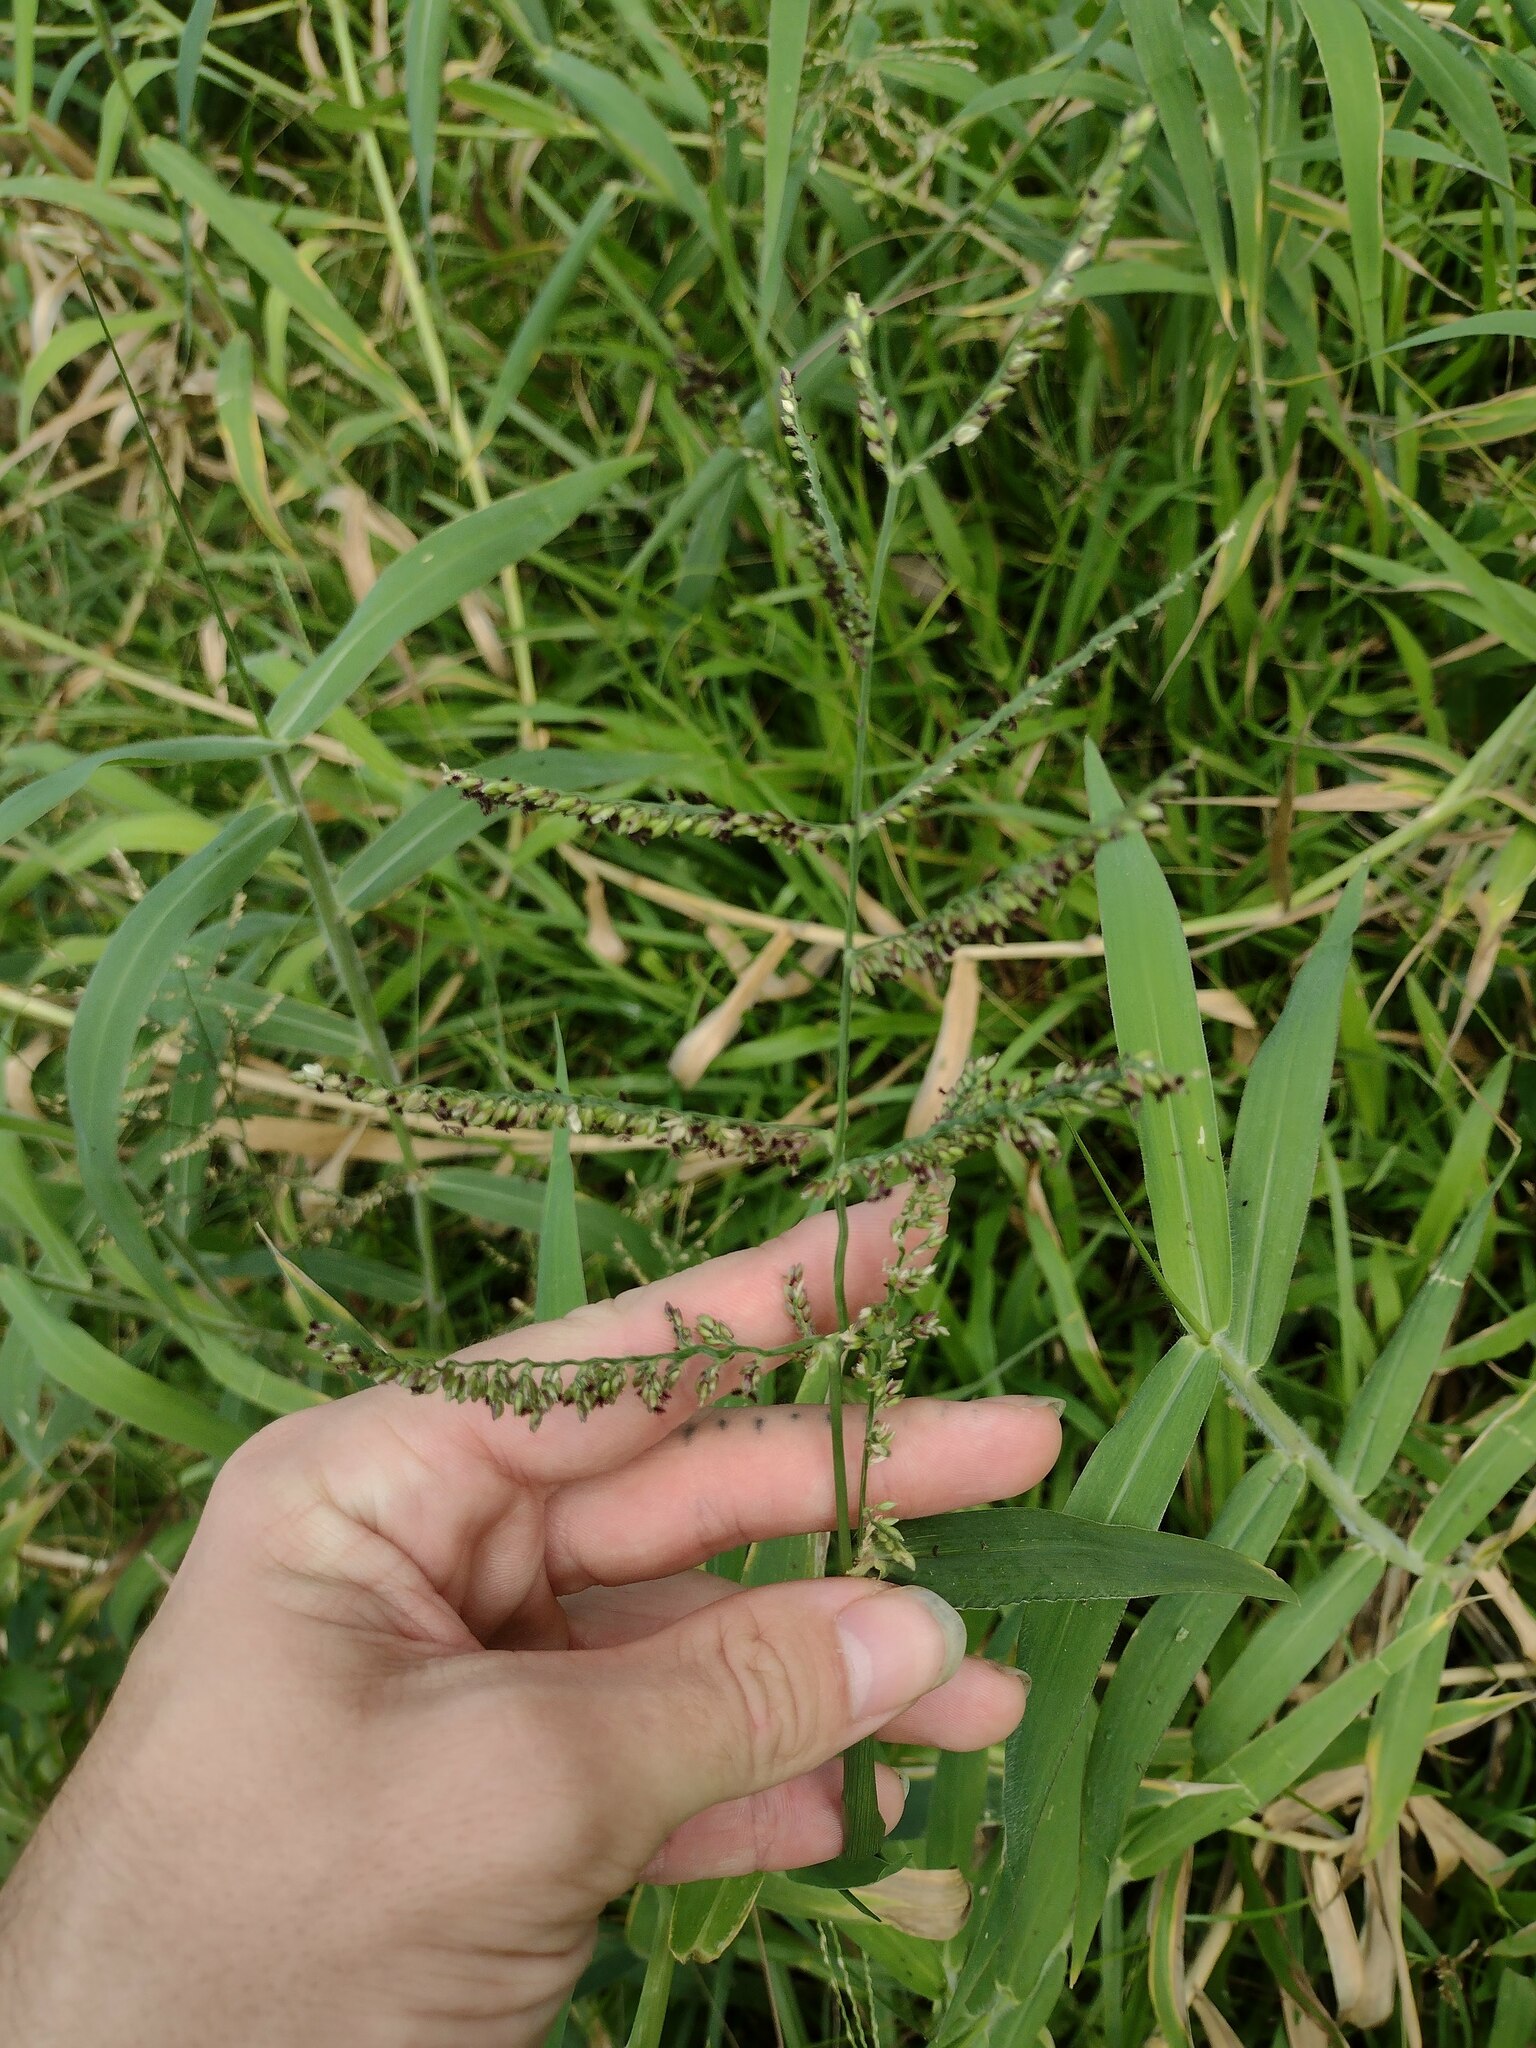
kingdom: Plantae
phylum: Tracheophyta
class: Liliopsida
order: Poales
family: Poaceae
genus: Urochloa
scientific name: Urochloa mutica
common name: Para grass
